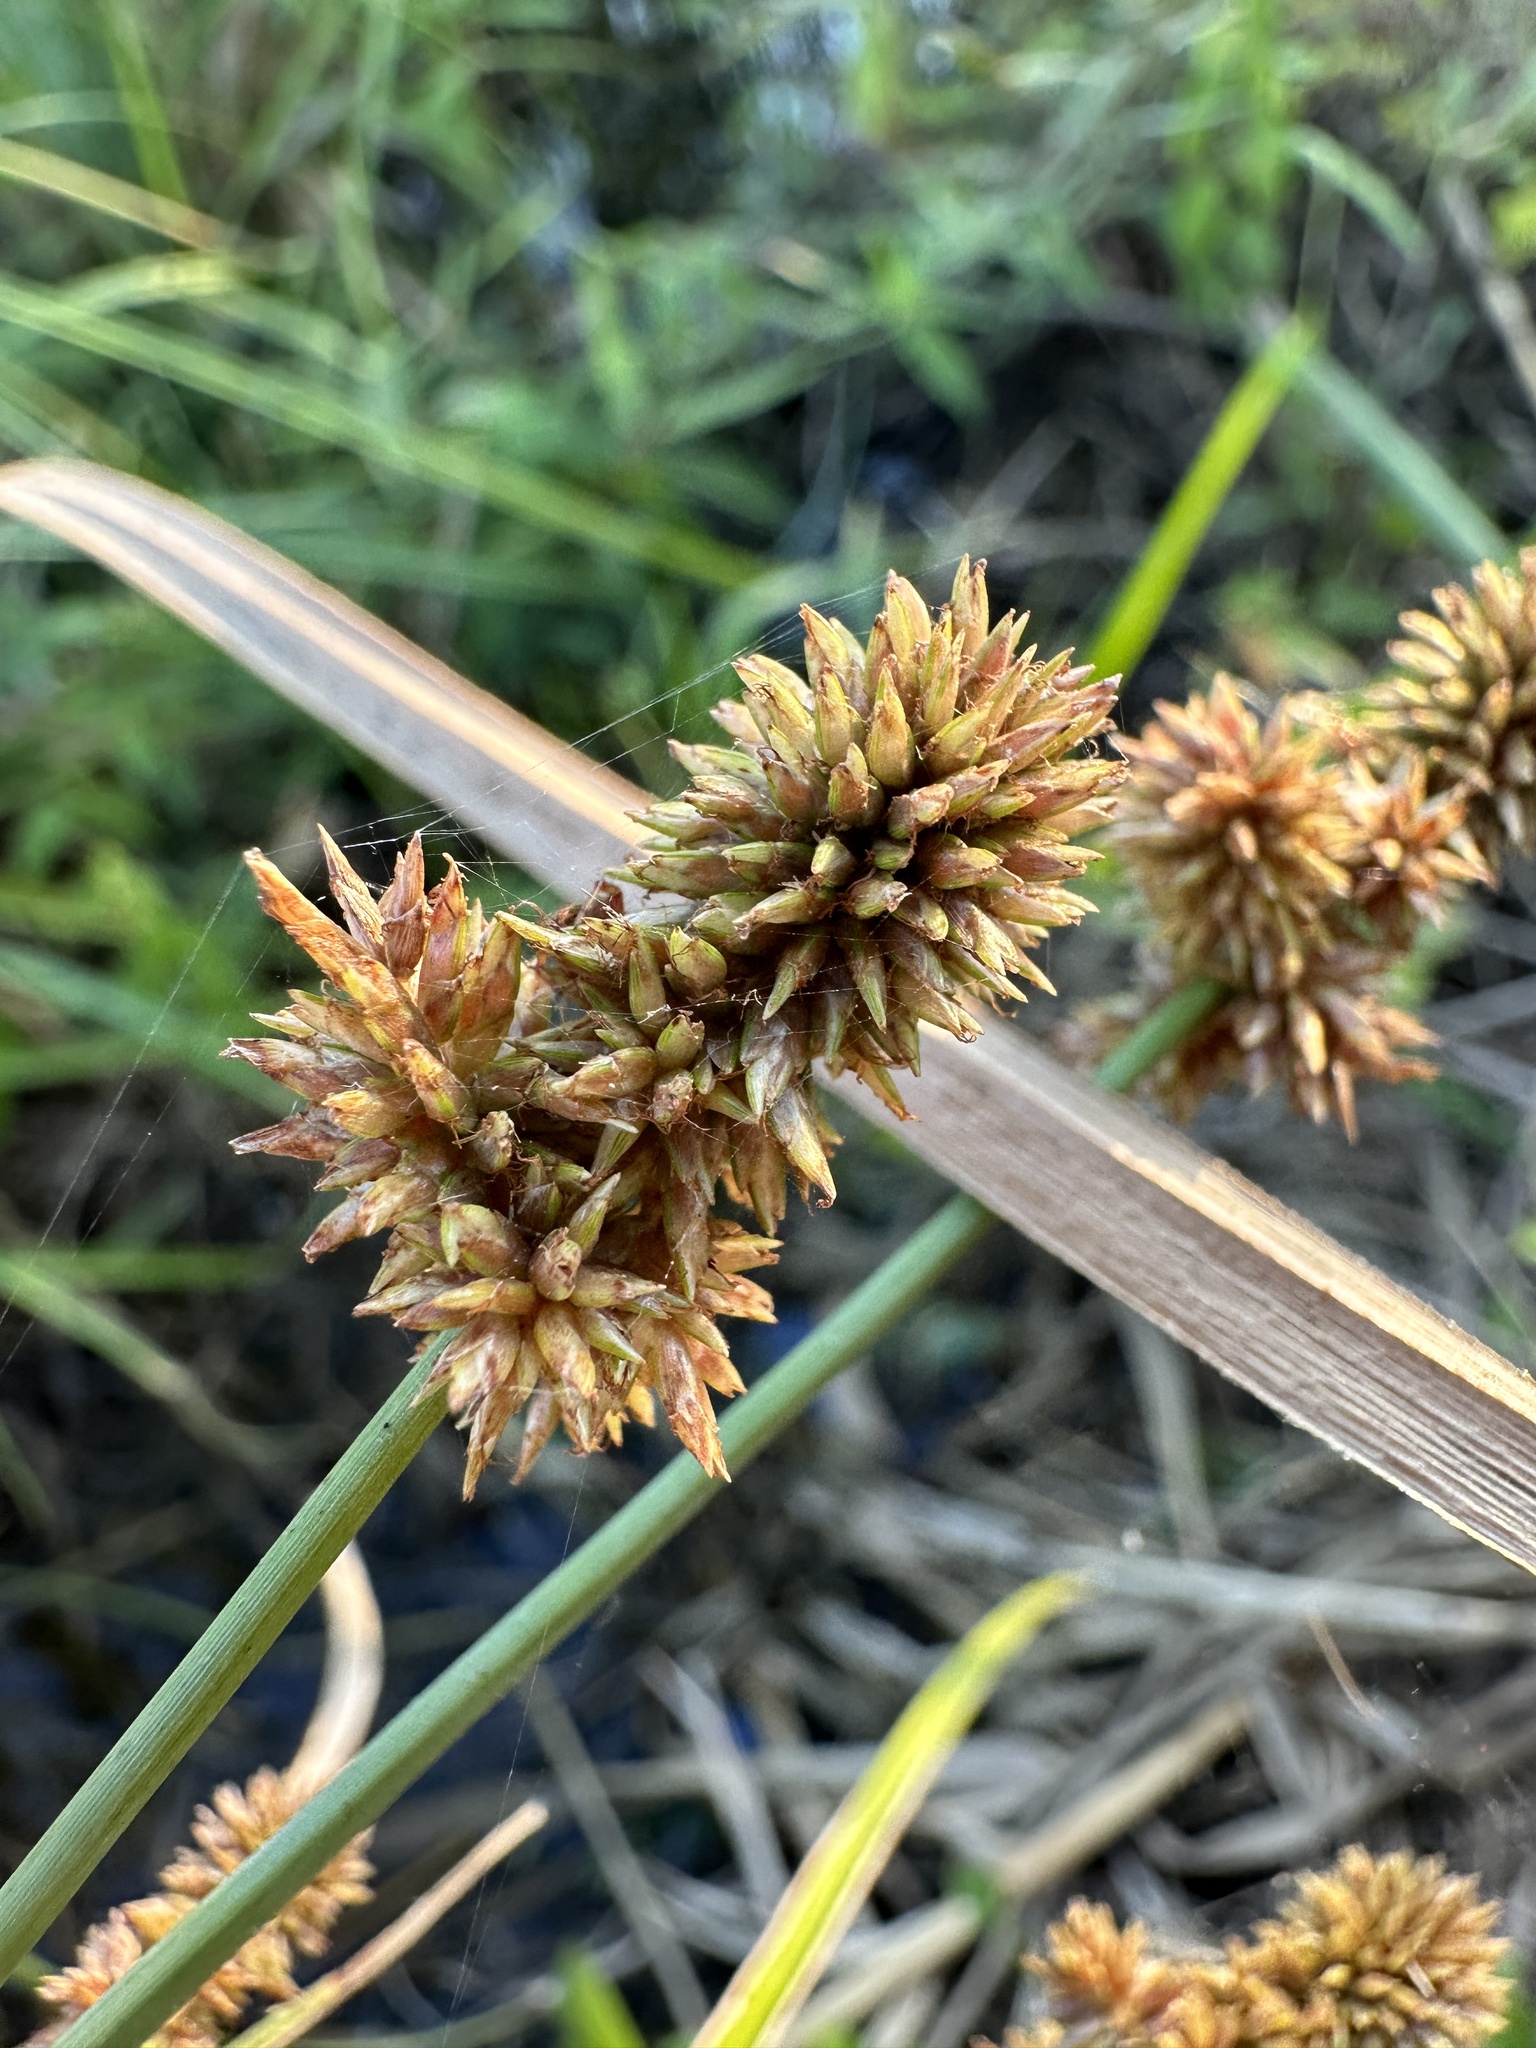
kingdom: Plantae
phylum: Tracheophyta
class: Liliopsida
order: Poales
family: Cyperaceae
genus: Cyperus
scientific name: Cyperus ligularis
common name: Swamp flat sedge
